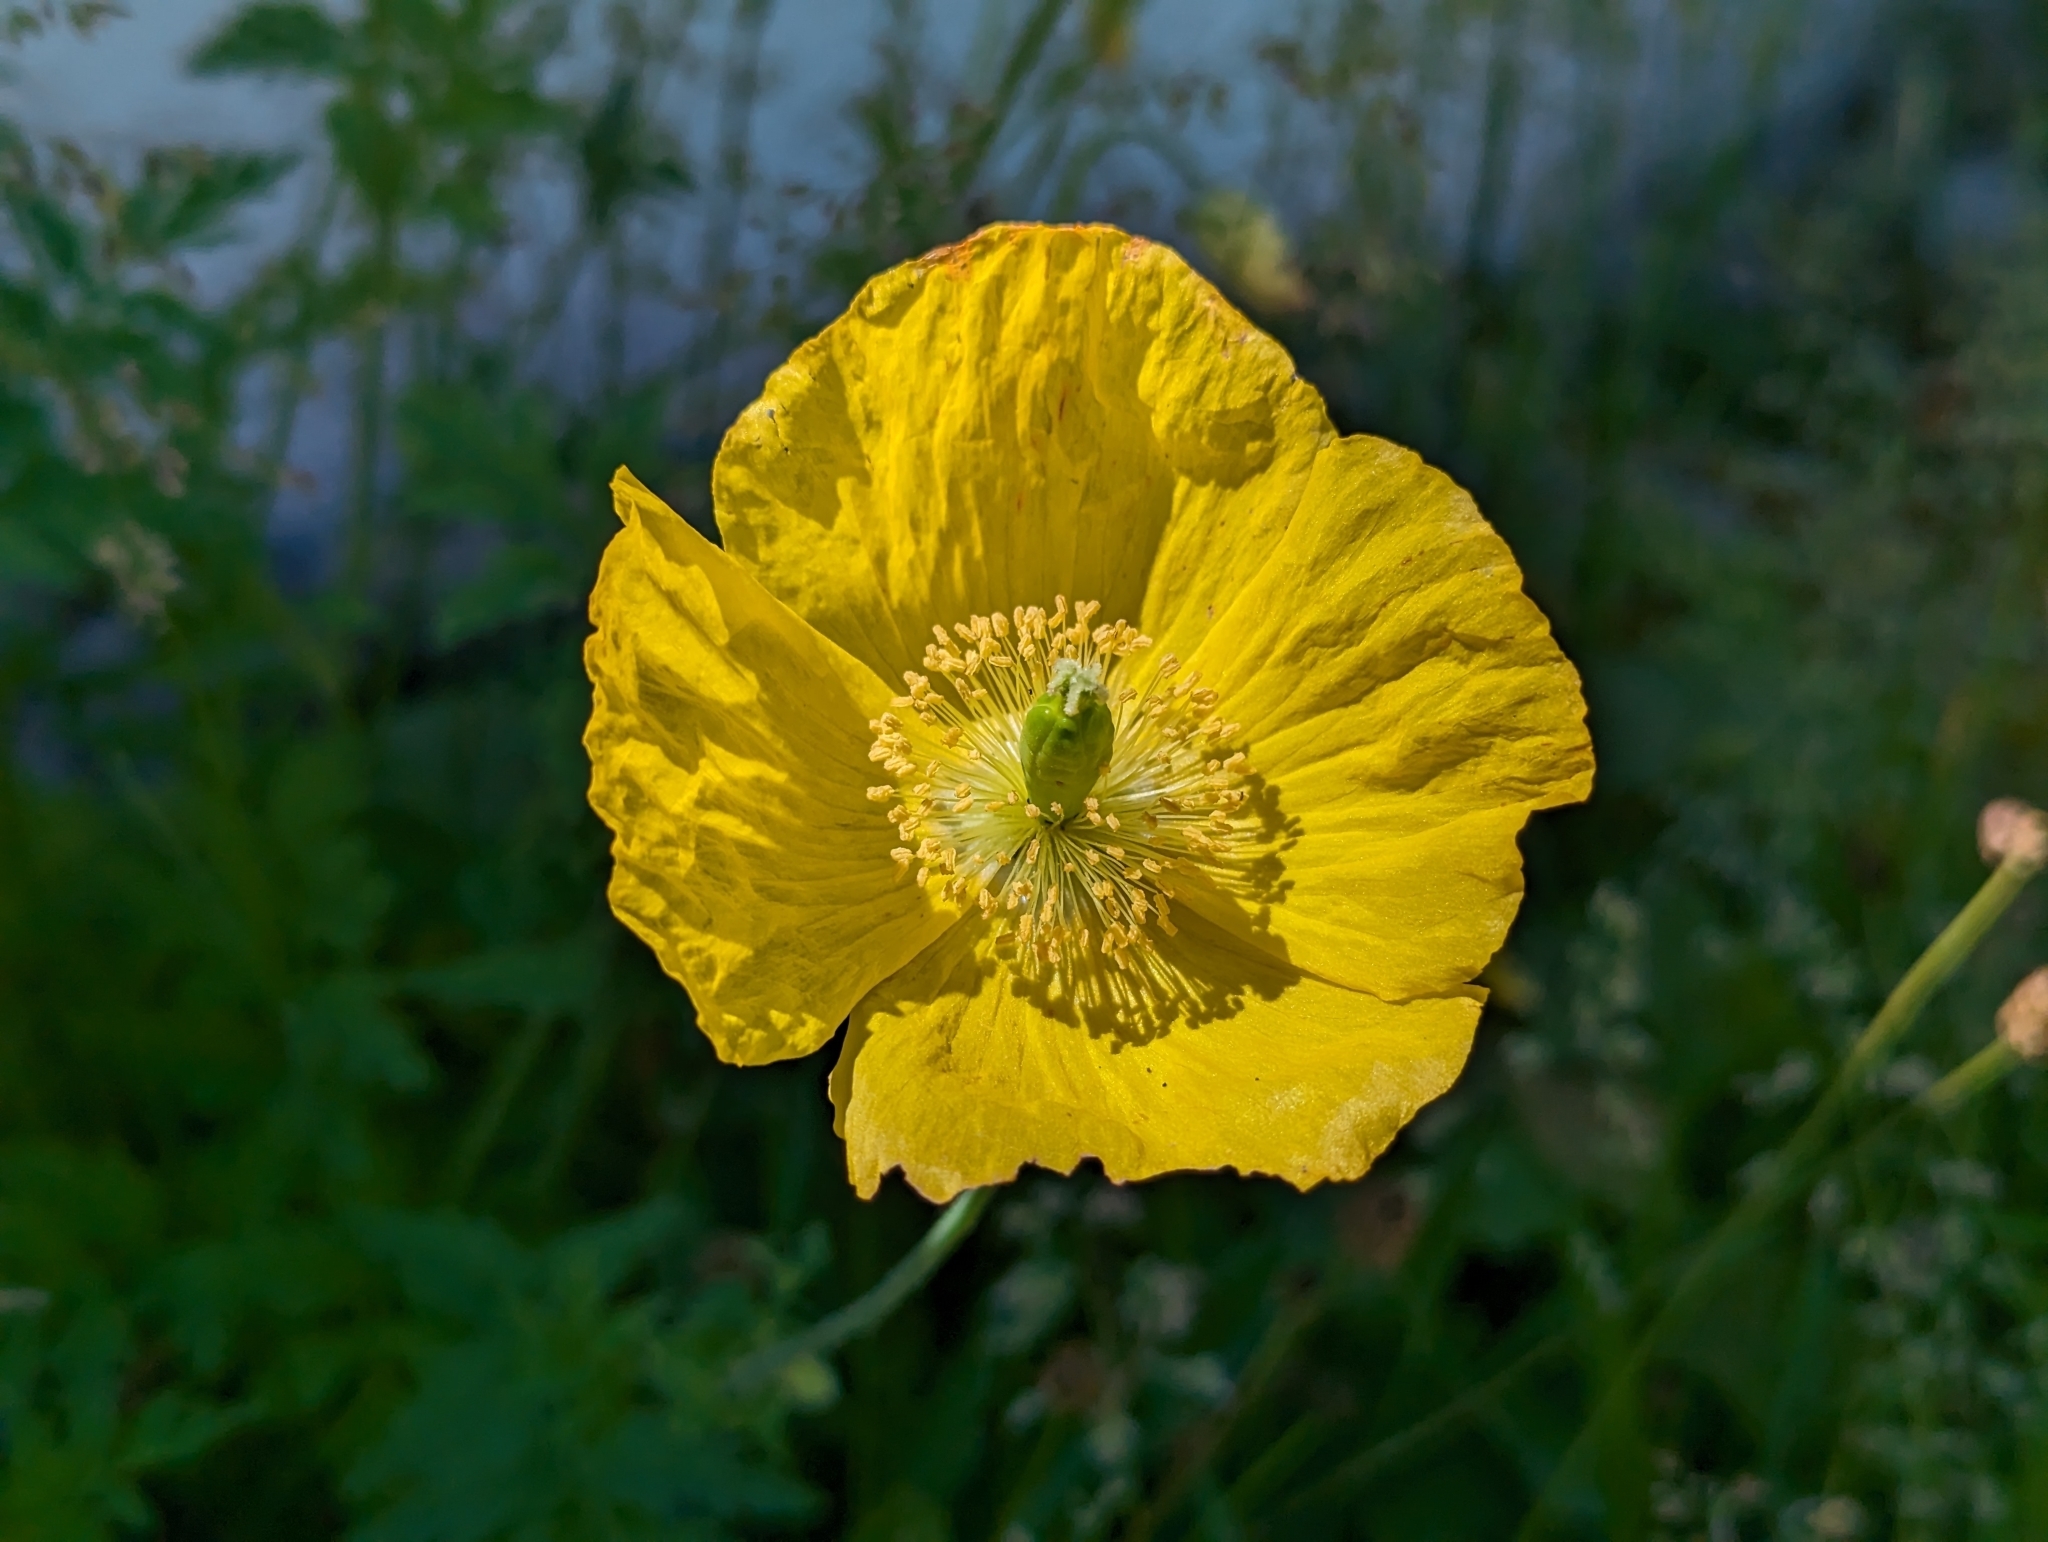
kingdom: Plantae
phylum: Tracheophyta
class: Magnoliopsida
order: Ranunculales
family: Papaveraceae
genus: Papaver
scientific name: Papaver cambricum
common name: Poppy
